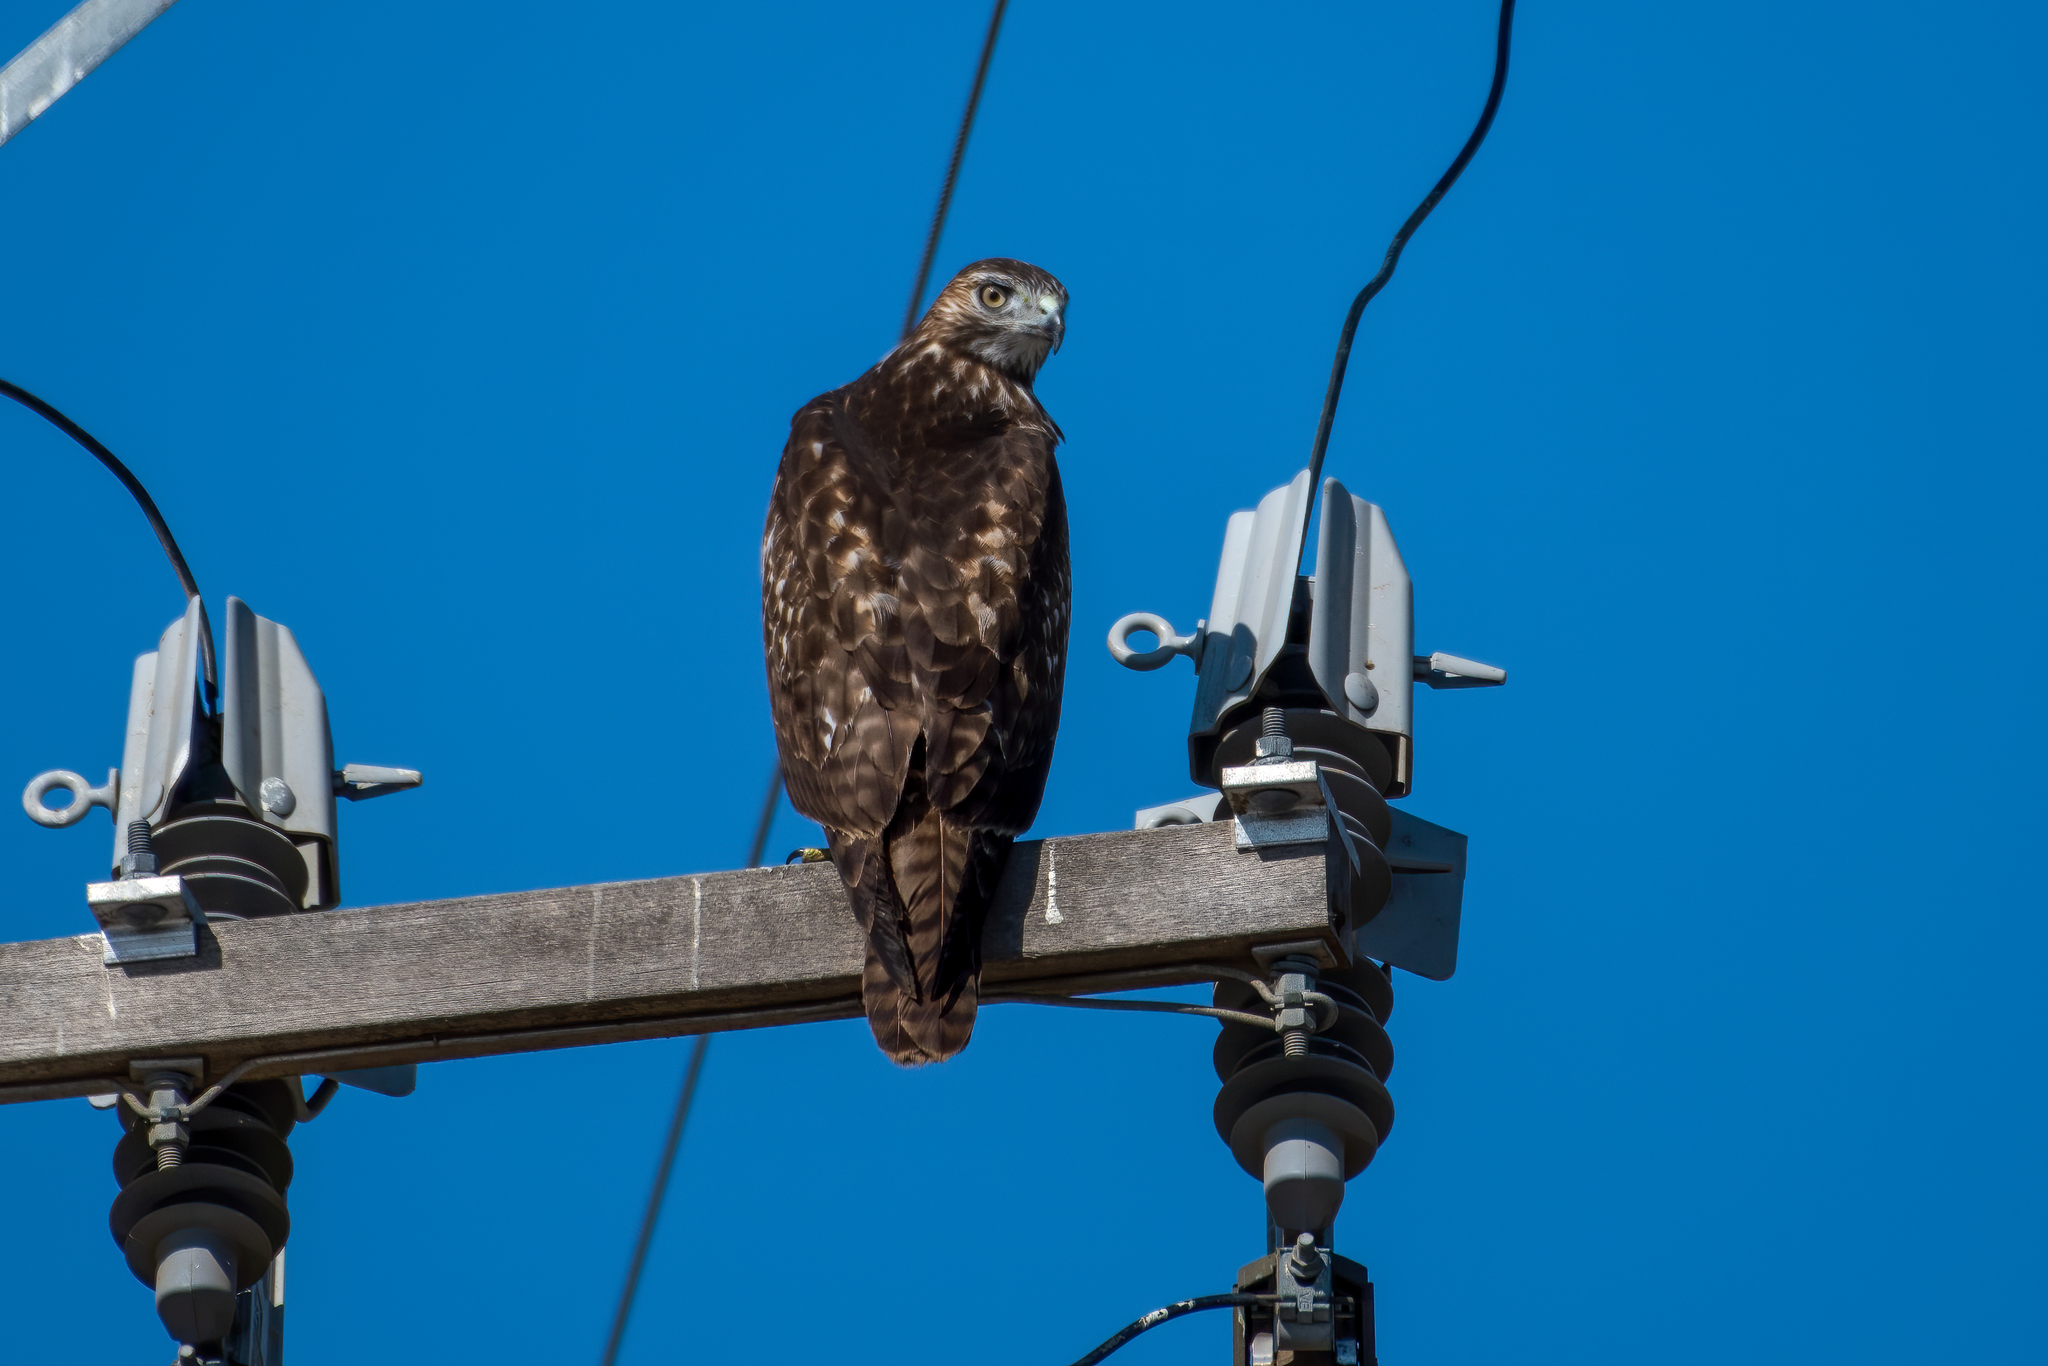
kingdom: Animalia
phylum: Chordata
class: Aves
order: Accipitriformes
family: Accipitridae
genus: Buteo
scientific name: Buteo jamaicensis
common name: Red-tailed hawk
